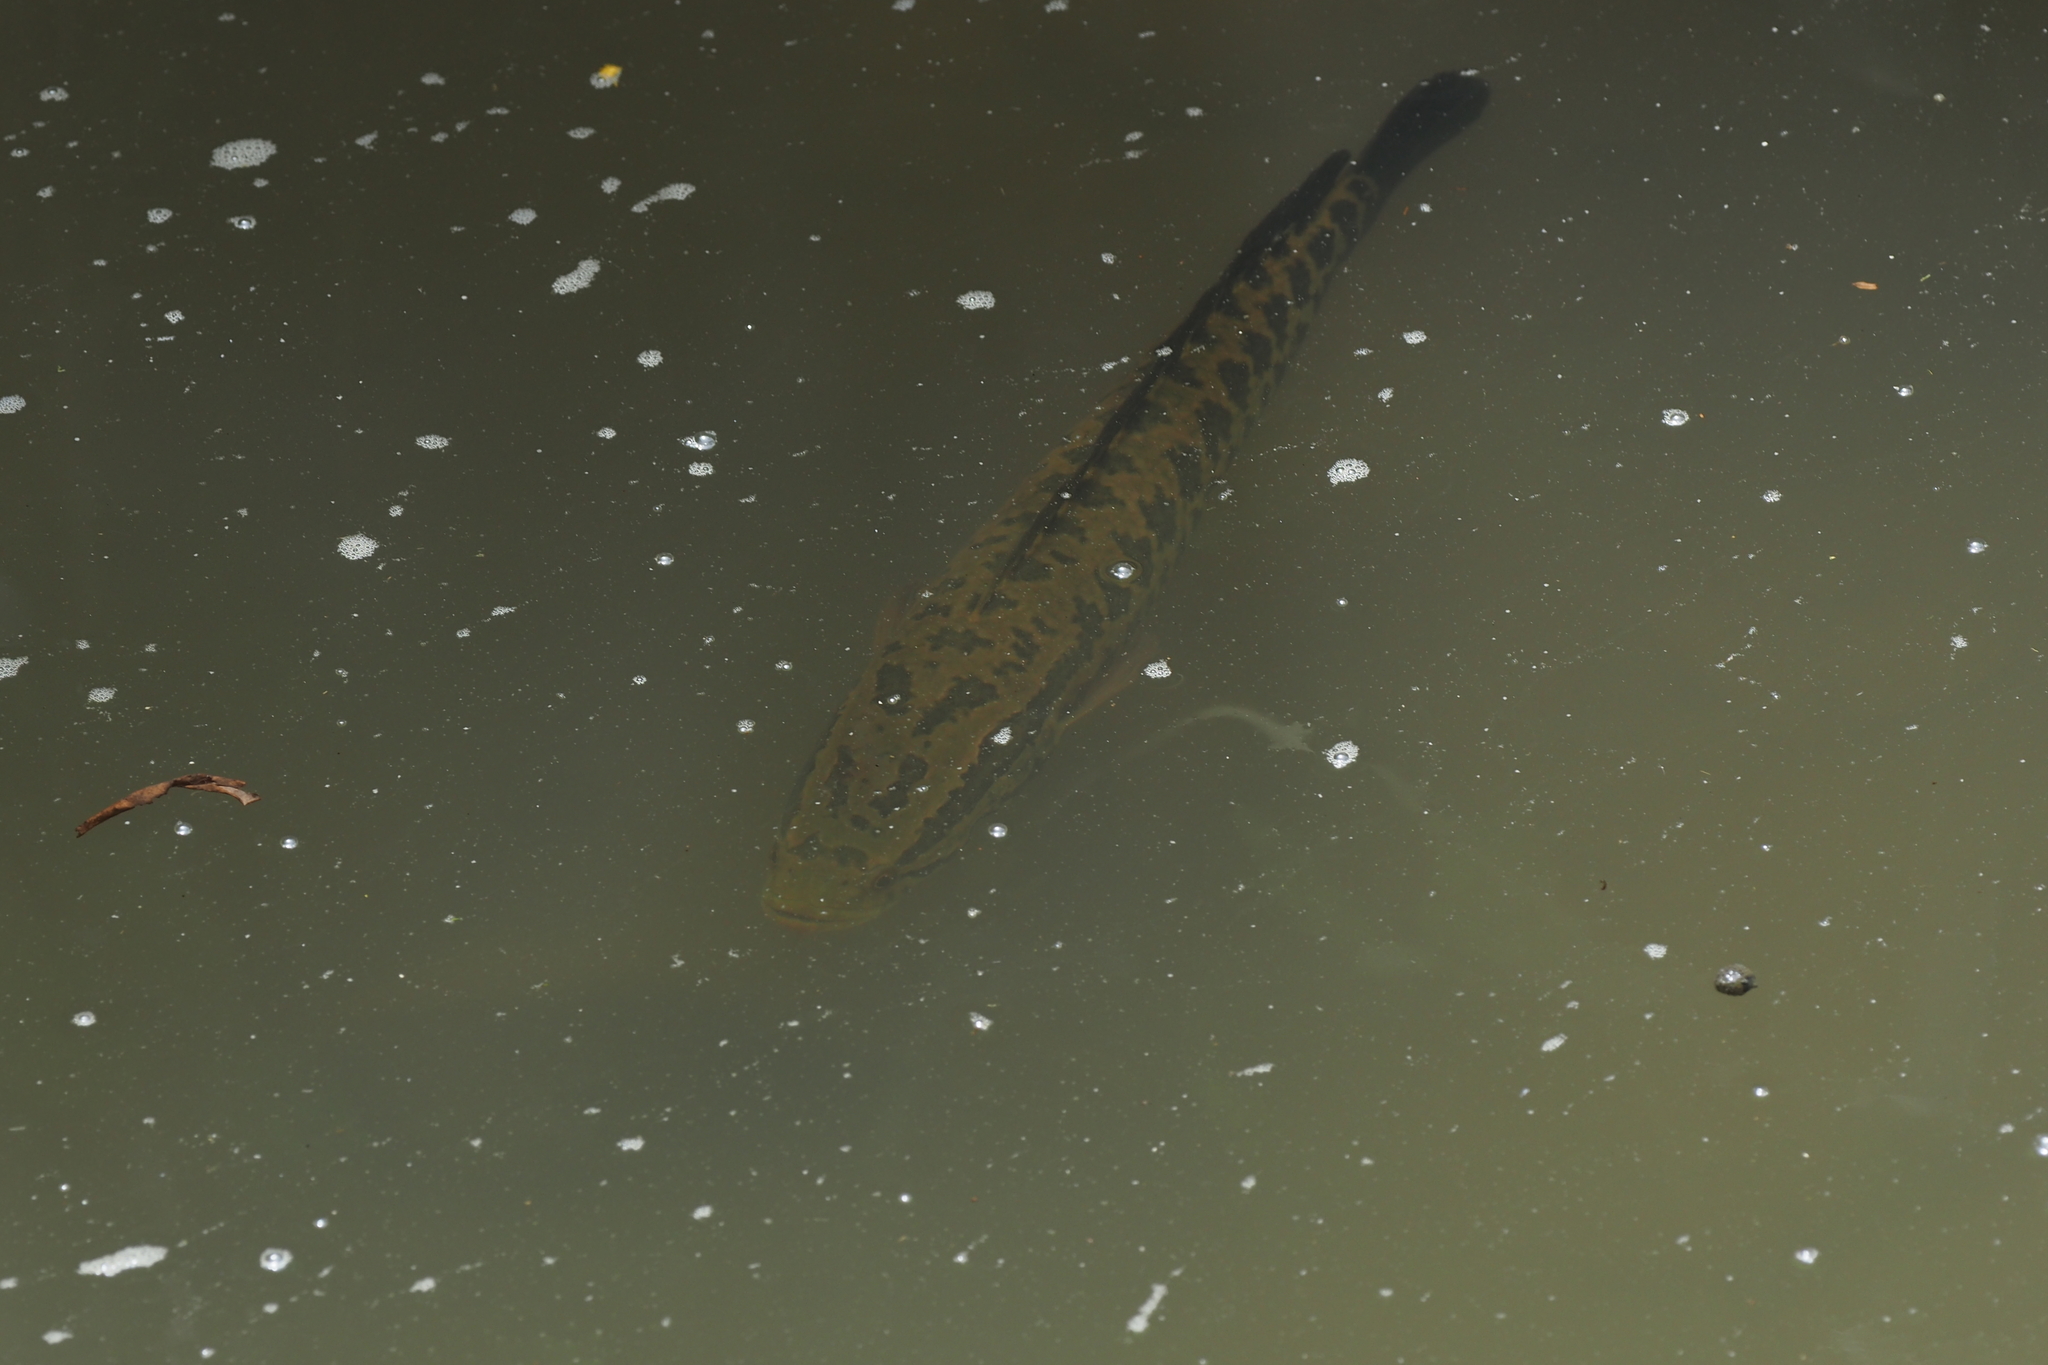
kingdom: Animalia
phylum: Chordata
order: Perciformes
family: Channidae
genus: Channa
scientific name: Channa maculata
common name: Blotched snakehead
